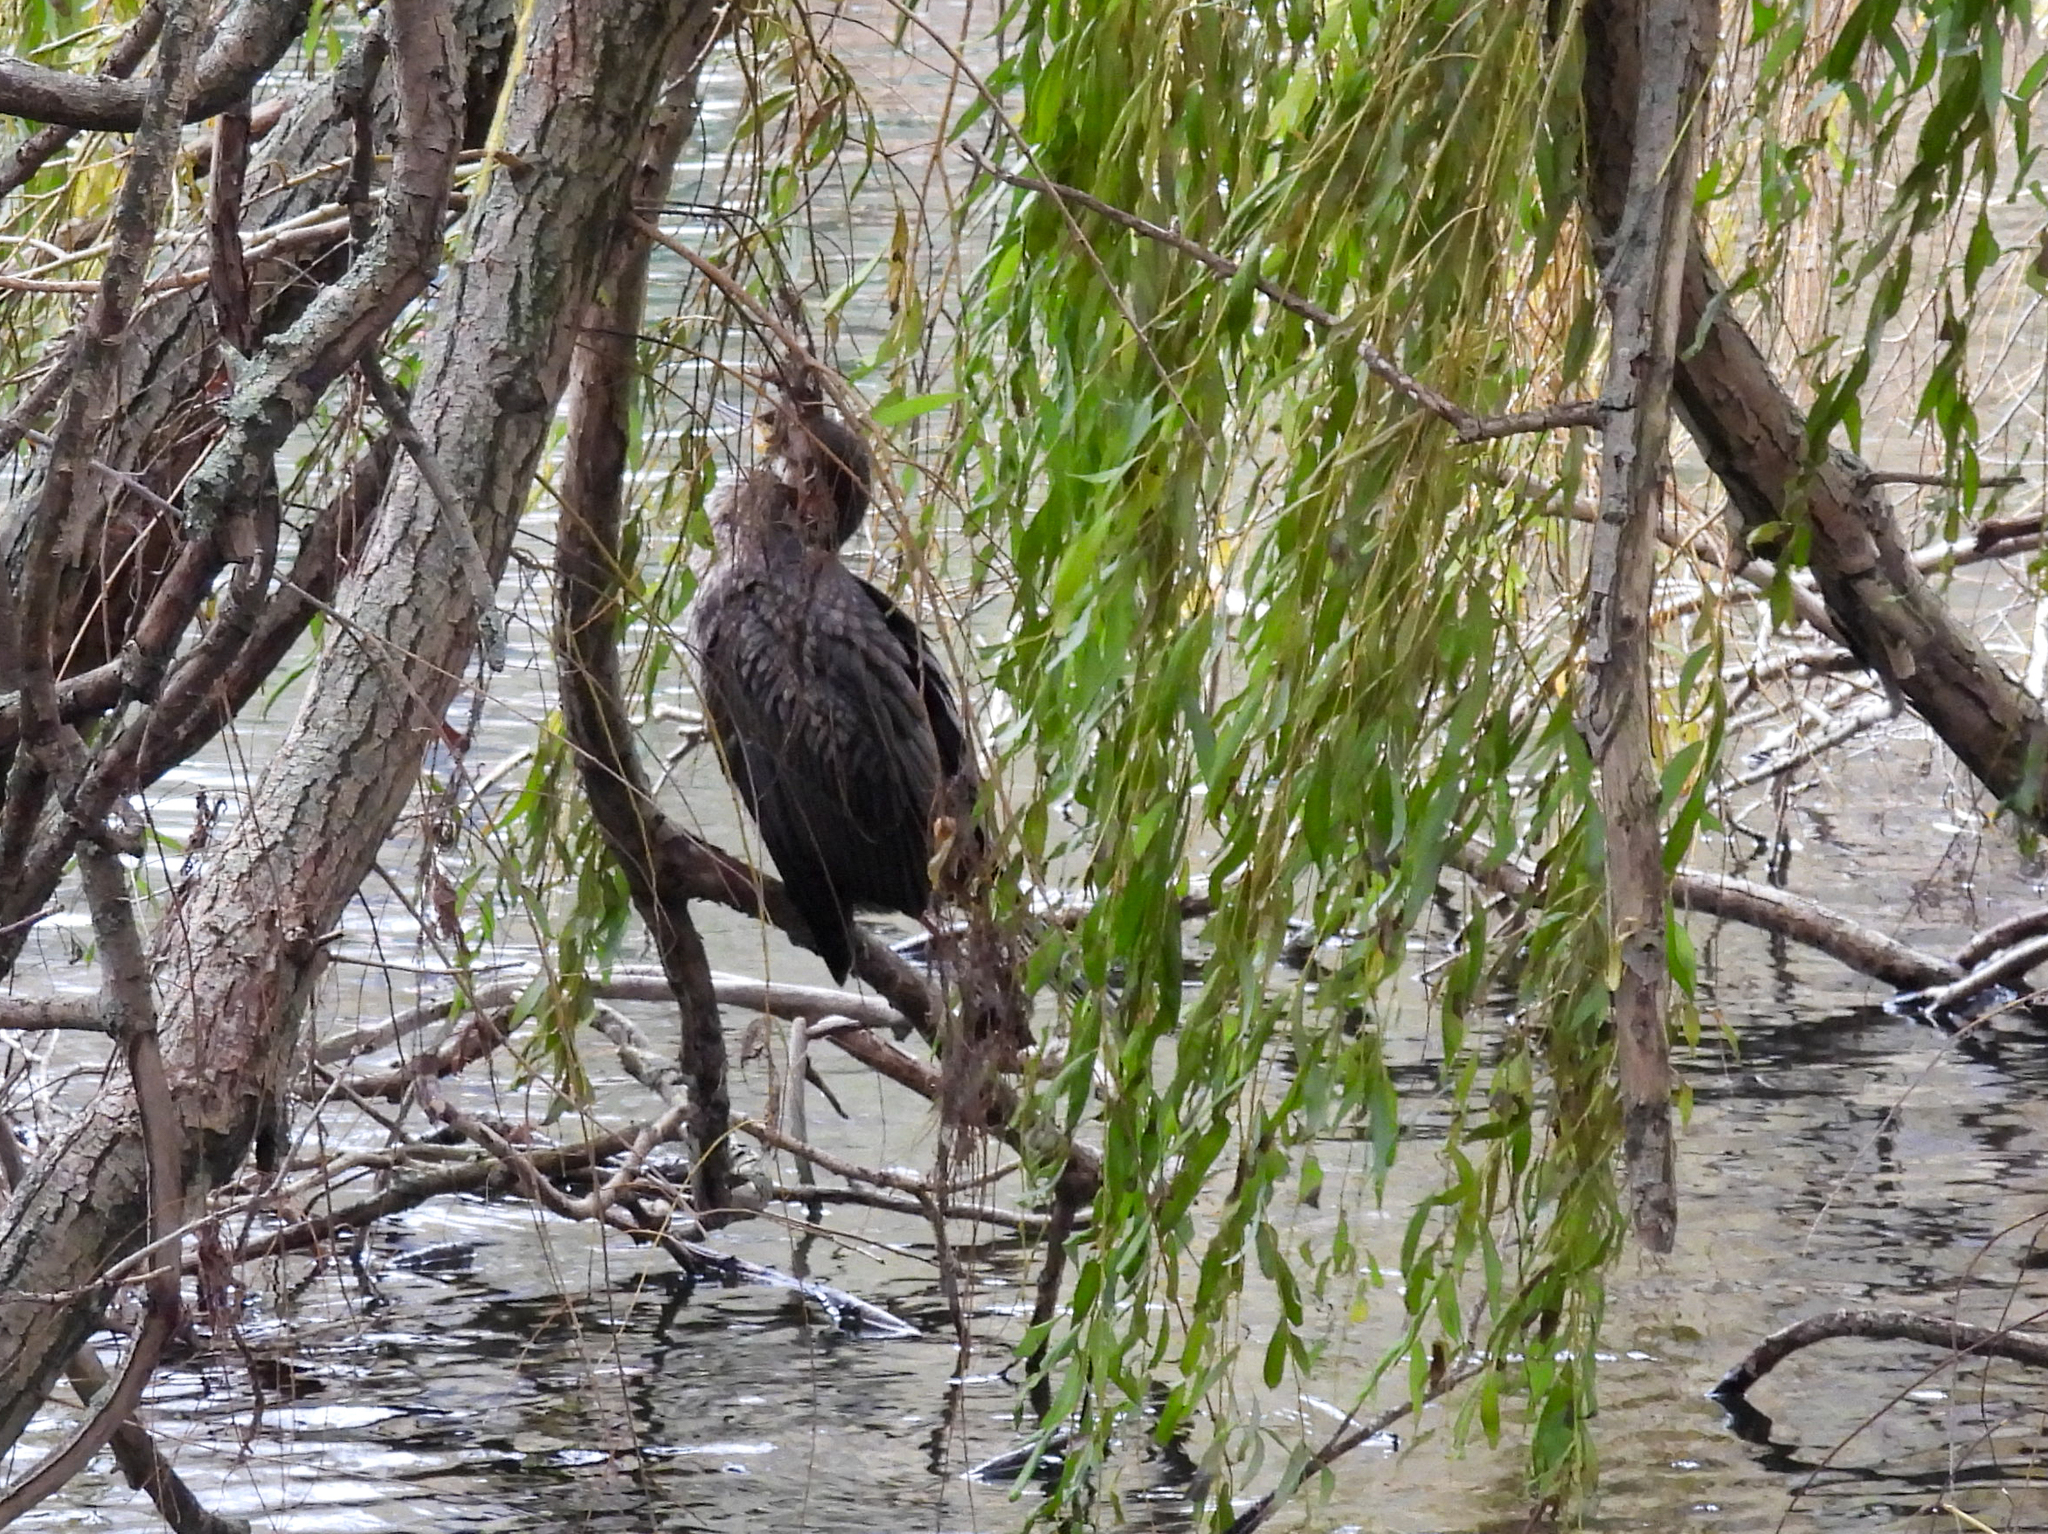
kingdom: Animalia
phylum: Chordata
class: Aves
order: Suliformes
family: Phalacrocoracidae
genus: Phalacrocorax
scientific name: Phalacrocorax carbo
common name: Great cormorant
